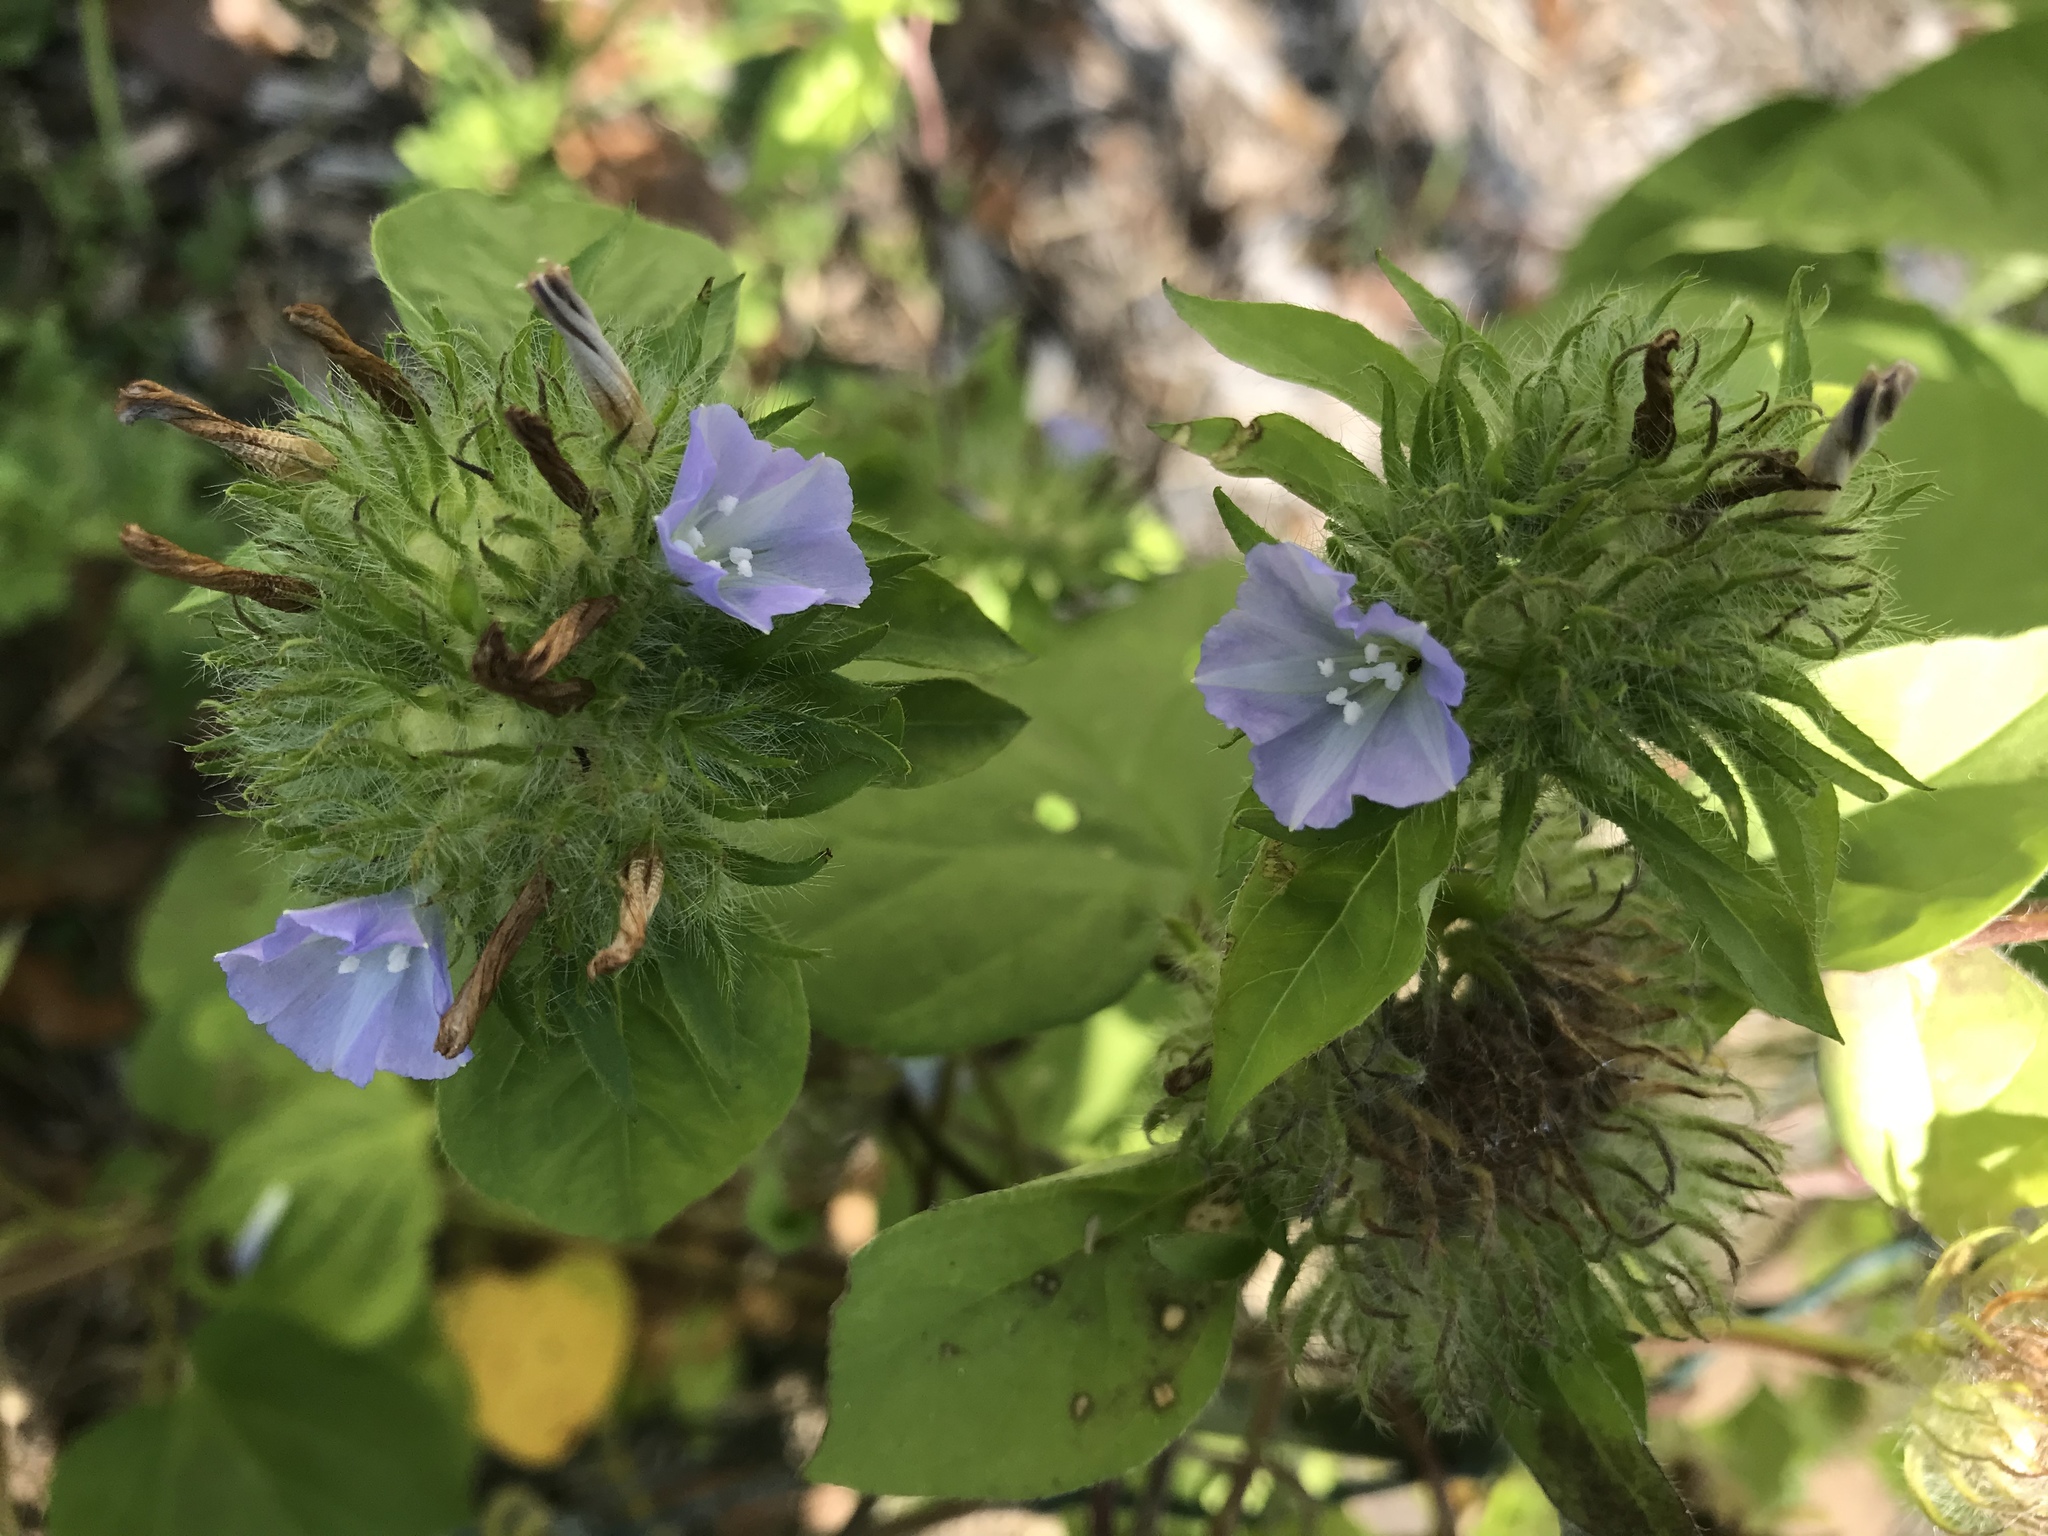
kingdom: Plantae
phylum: Tracheophyta
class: Magnoliopsida
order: Solanales
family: Convolvulaceae
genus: Jacquemontia
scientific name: Jacquemontia tamnifolia
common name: Hairy clustervine
